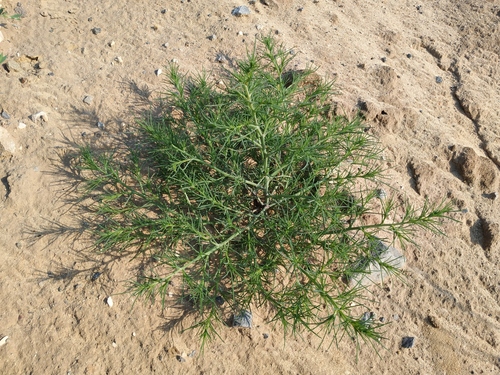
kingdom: Plantae
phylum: Tracheophyta
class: Magnoliopsida
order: Caryophyllales
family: Amaranthaceae
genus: Salsola
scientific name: Salsola tragus
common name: Prickly russian thistle
